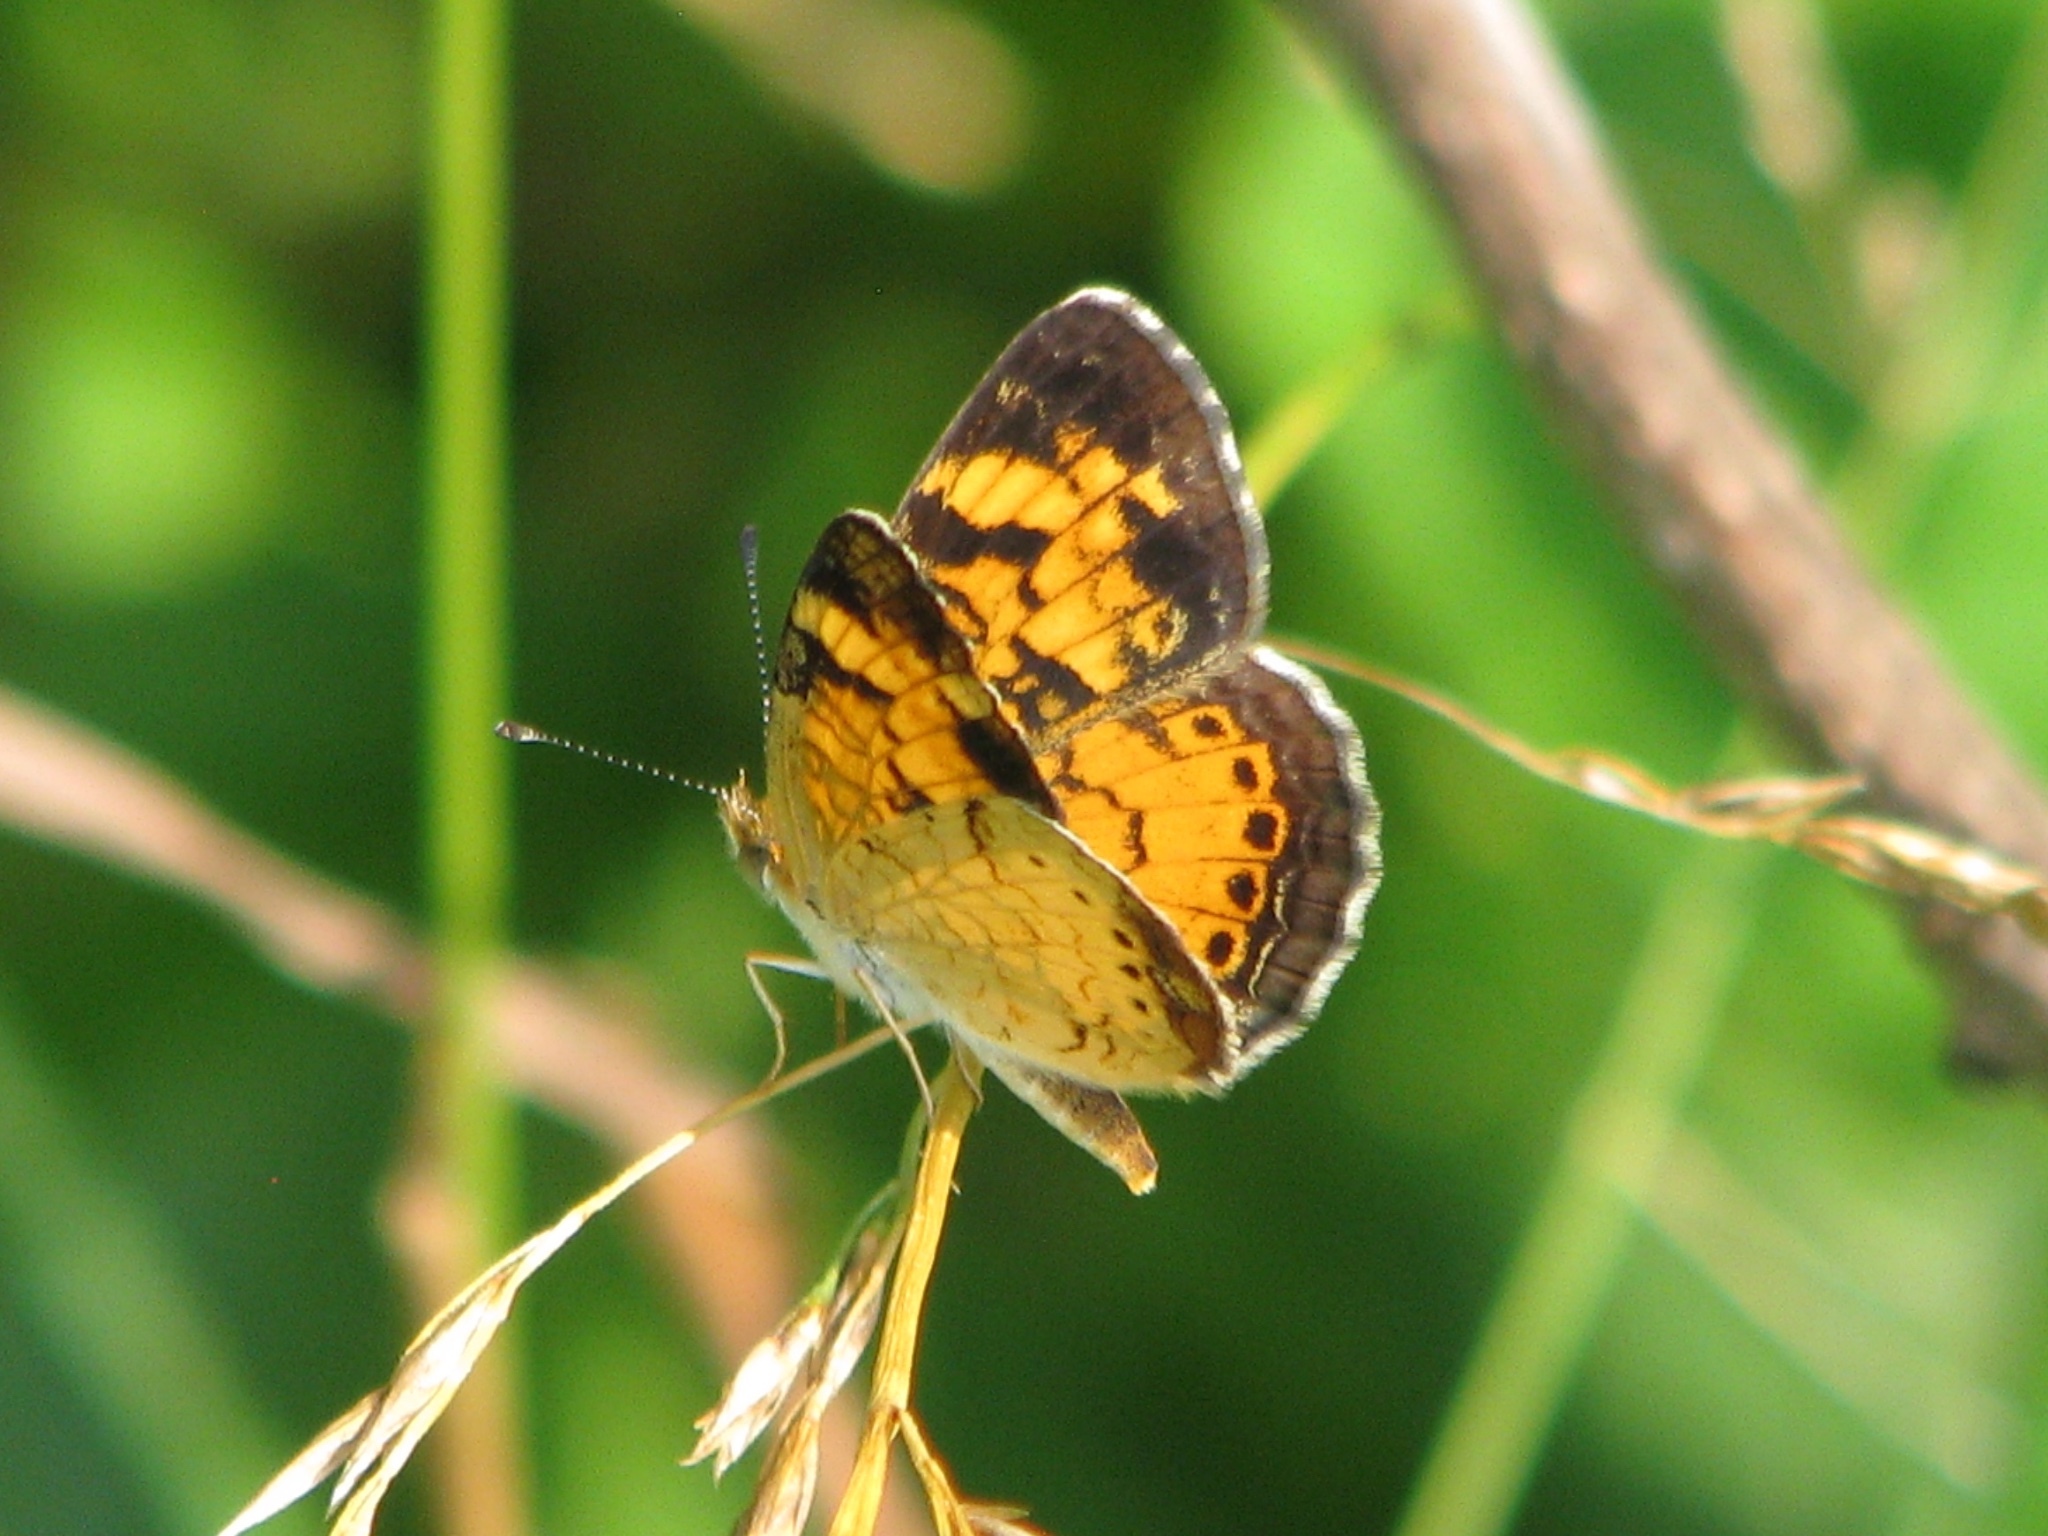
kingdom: Animalia
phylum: Arthropoda
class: Insecta
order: Lepidoptera
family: Nymphalidae
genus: Phyciodes
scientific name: Phyciodes tharos
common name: Pearl crescent
